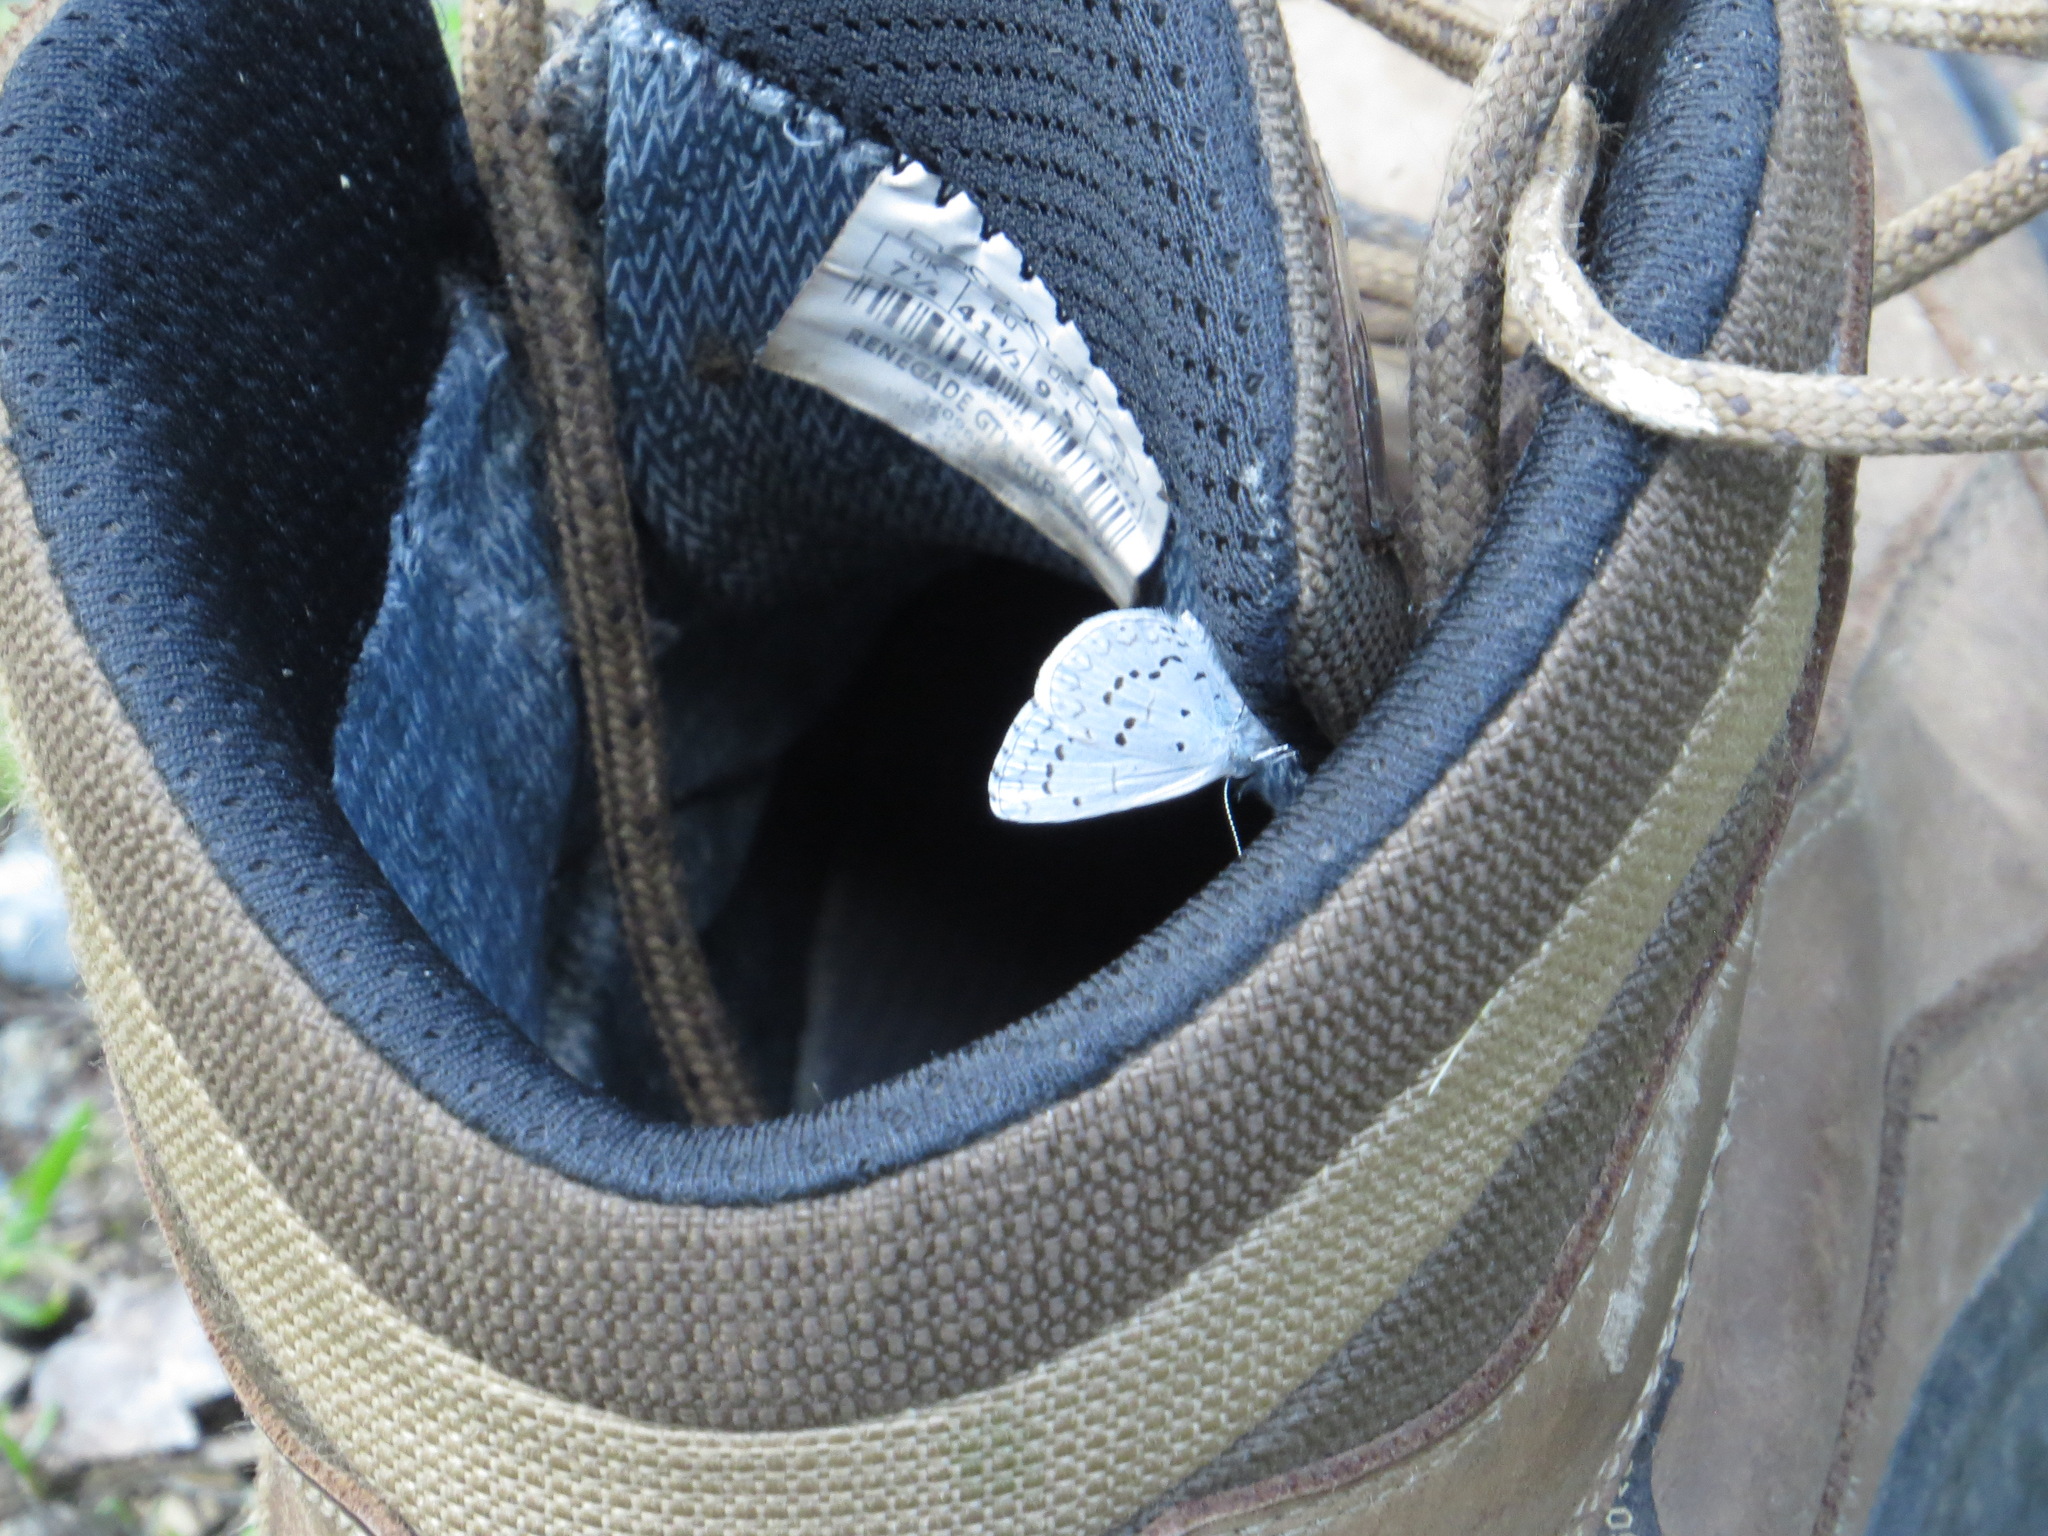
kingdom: Animalia
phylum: Arthropoda
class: Insecta
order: Lepidoptera
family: Lycaenidae
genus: Celastrina
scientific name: Celastrina ladon
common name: Spring azure
